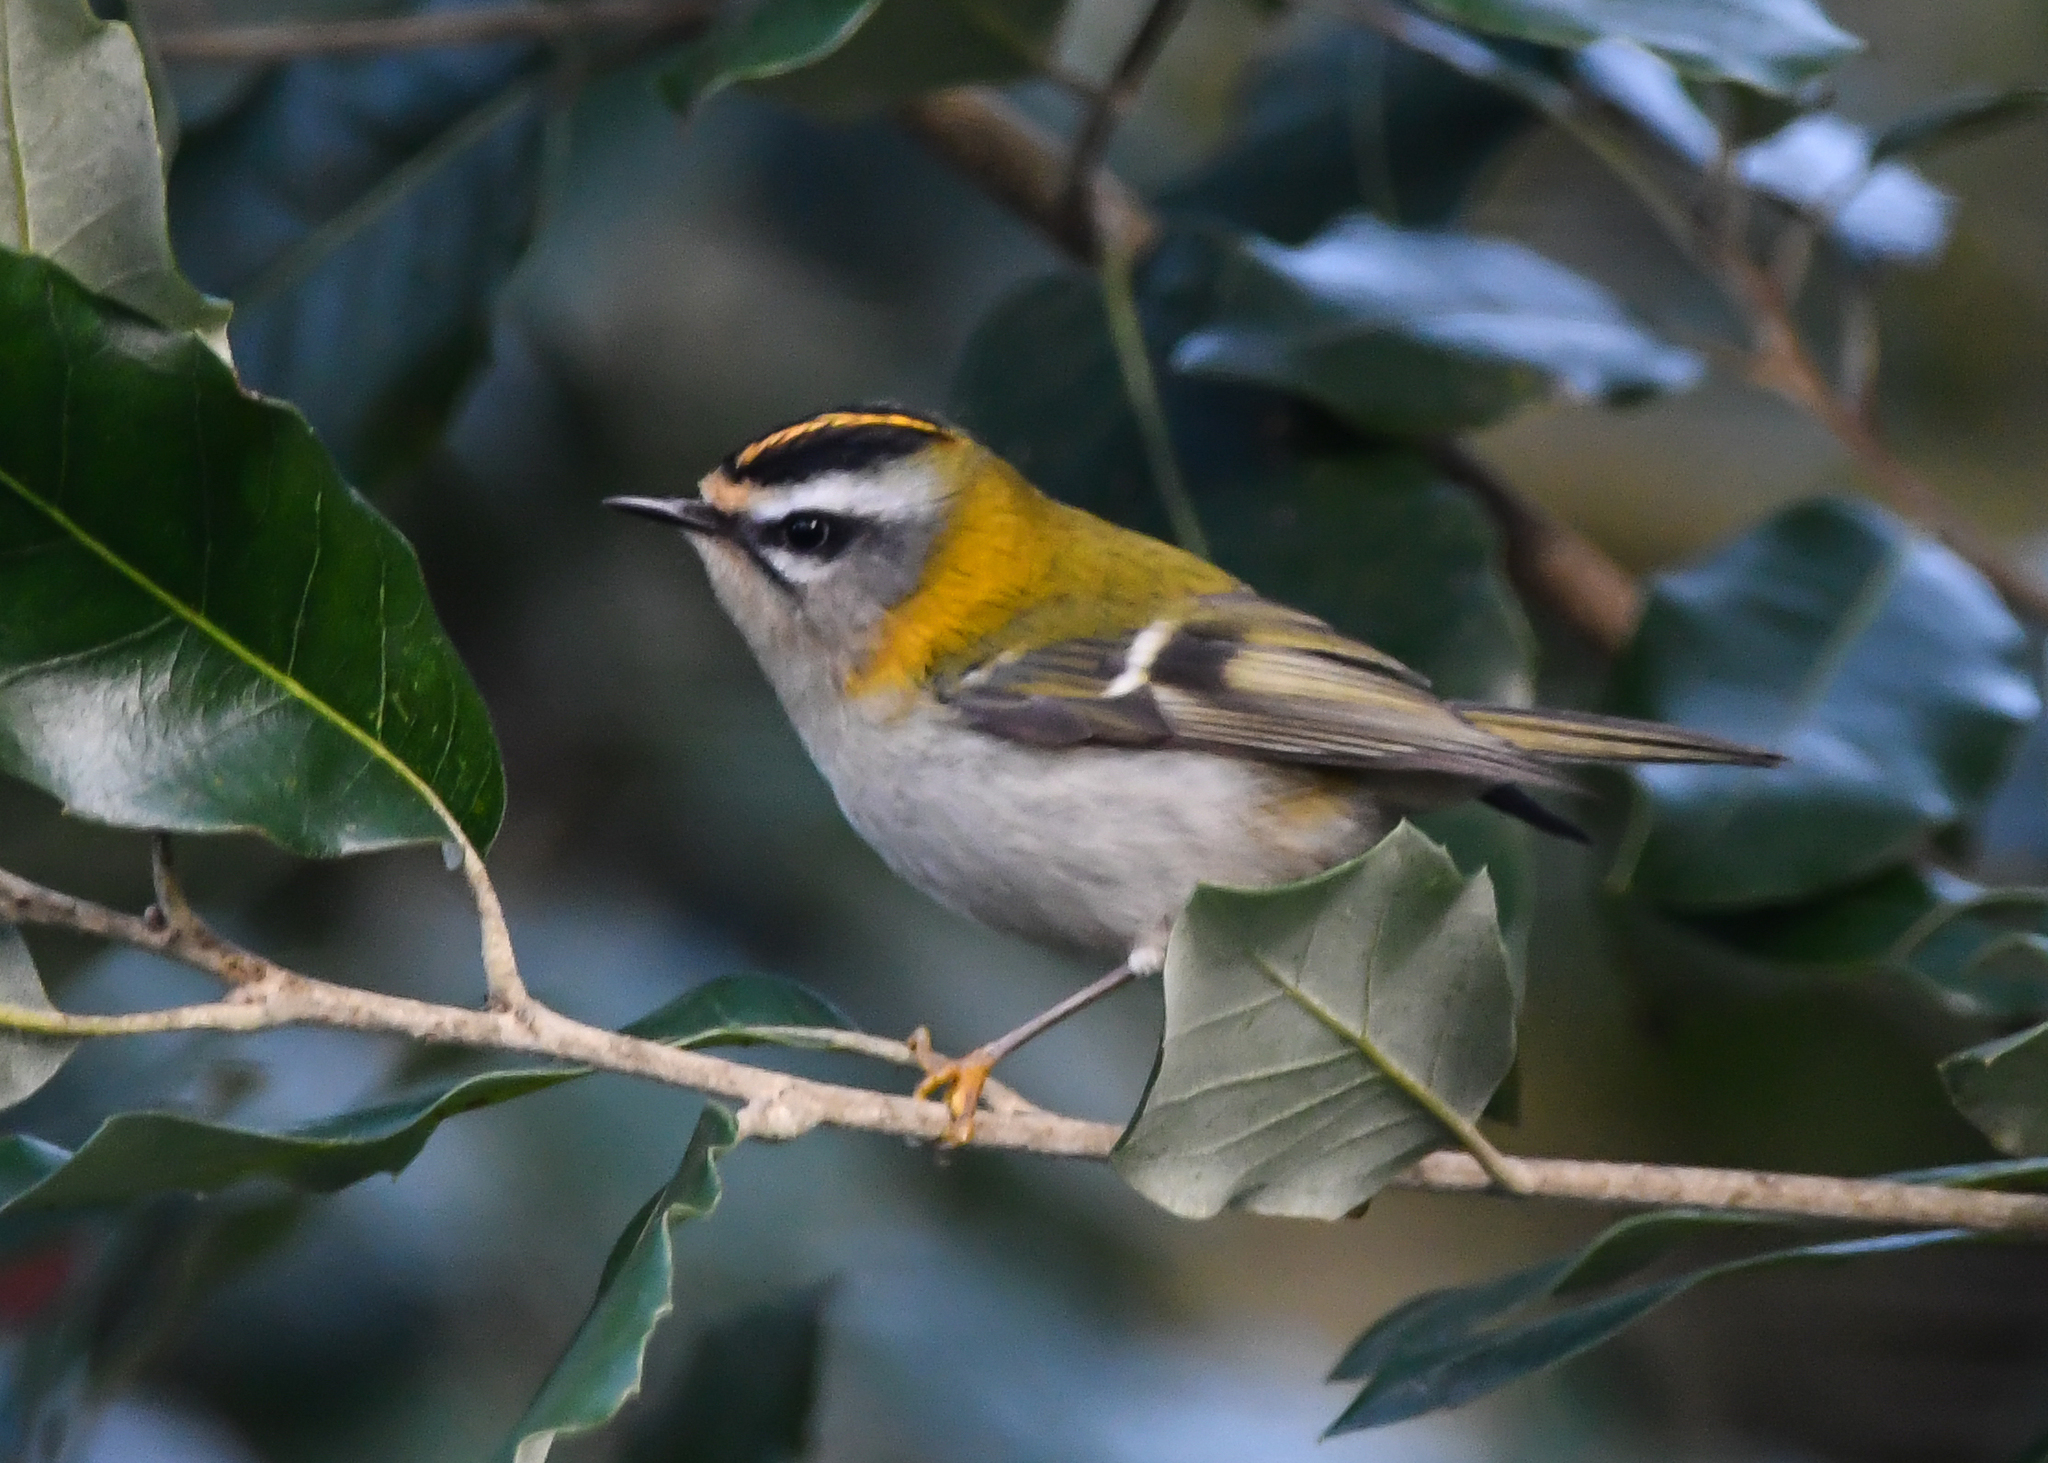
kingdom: Animalia
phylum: Chordata
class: Aves
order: Passeriformes
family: Regulidae
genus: Regulus
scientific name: Regulus ignicapilla
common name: Firecrest
